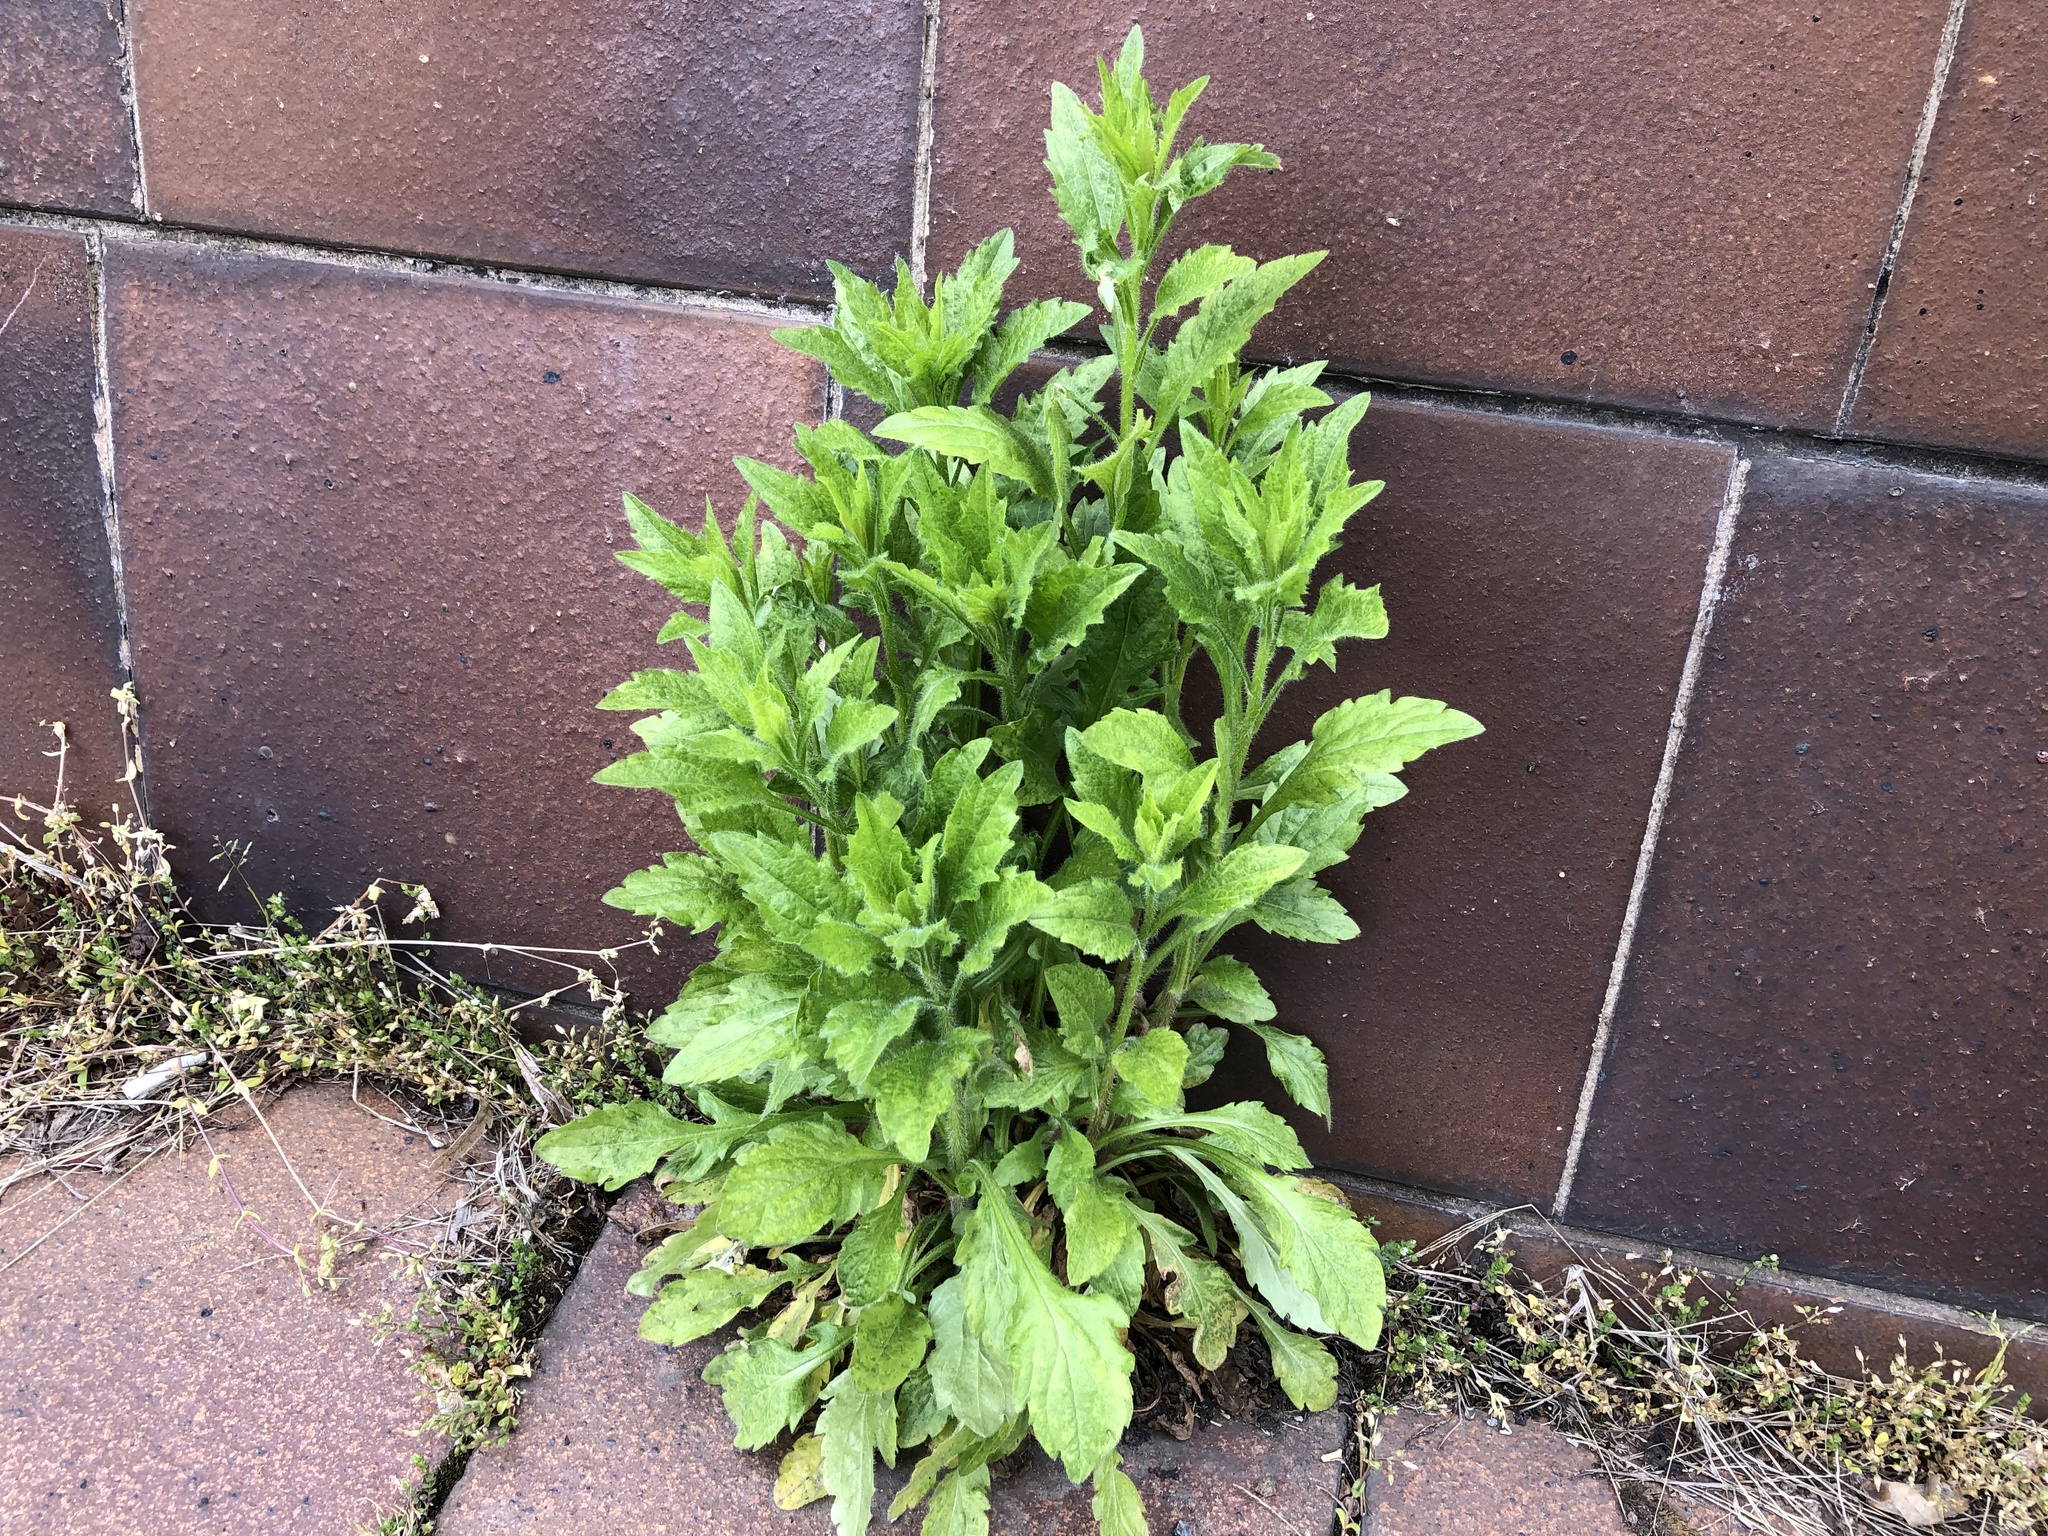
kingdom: Plantae
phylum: Tracheophyta
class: Magnoliopsida
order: Asterales
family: Asteraceae
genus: Erigeron
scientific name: Erigeron annuus
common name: Tall fleabane
